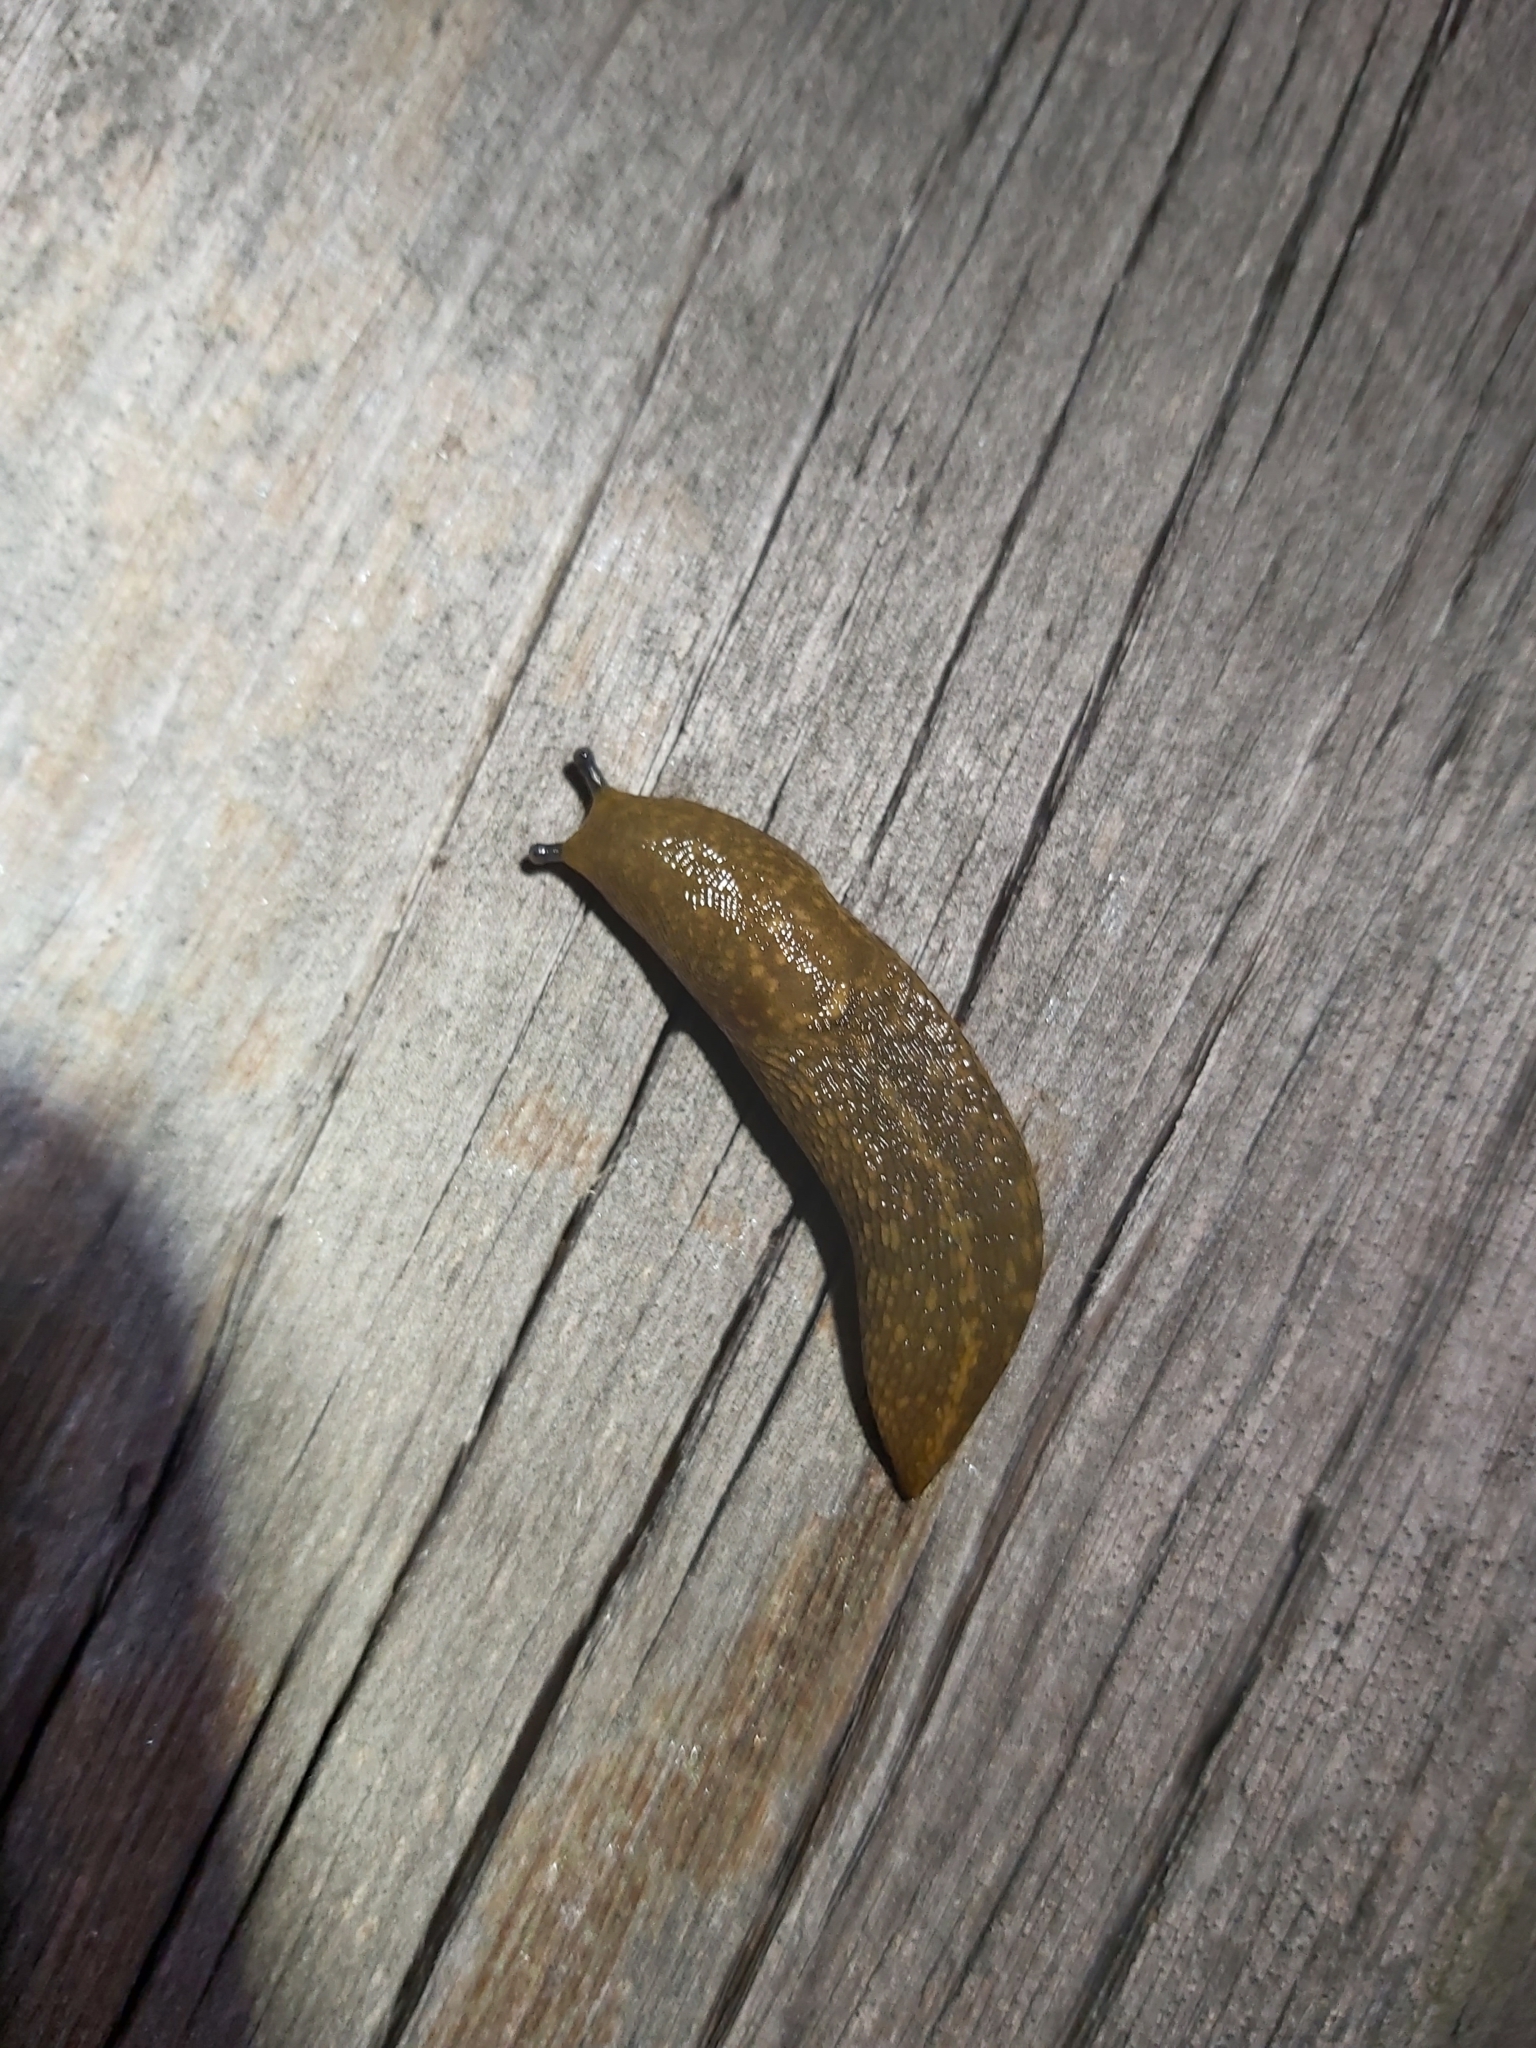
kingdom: Animalia
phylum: Mollusca
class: Gastropoda
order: Stylommatophora
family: Limacidae
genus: Limacus
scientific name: Limacus flavus
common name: Yellow gardenslug
